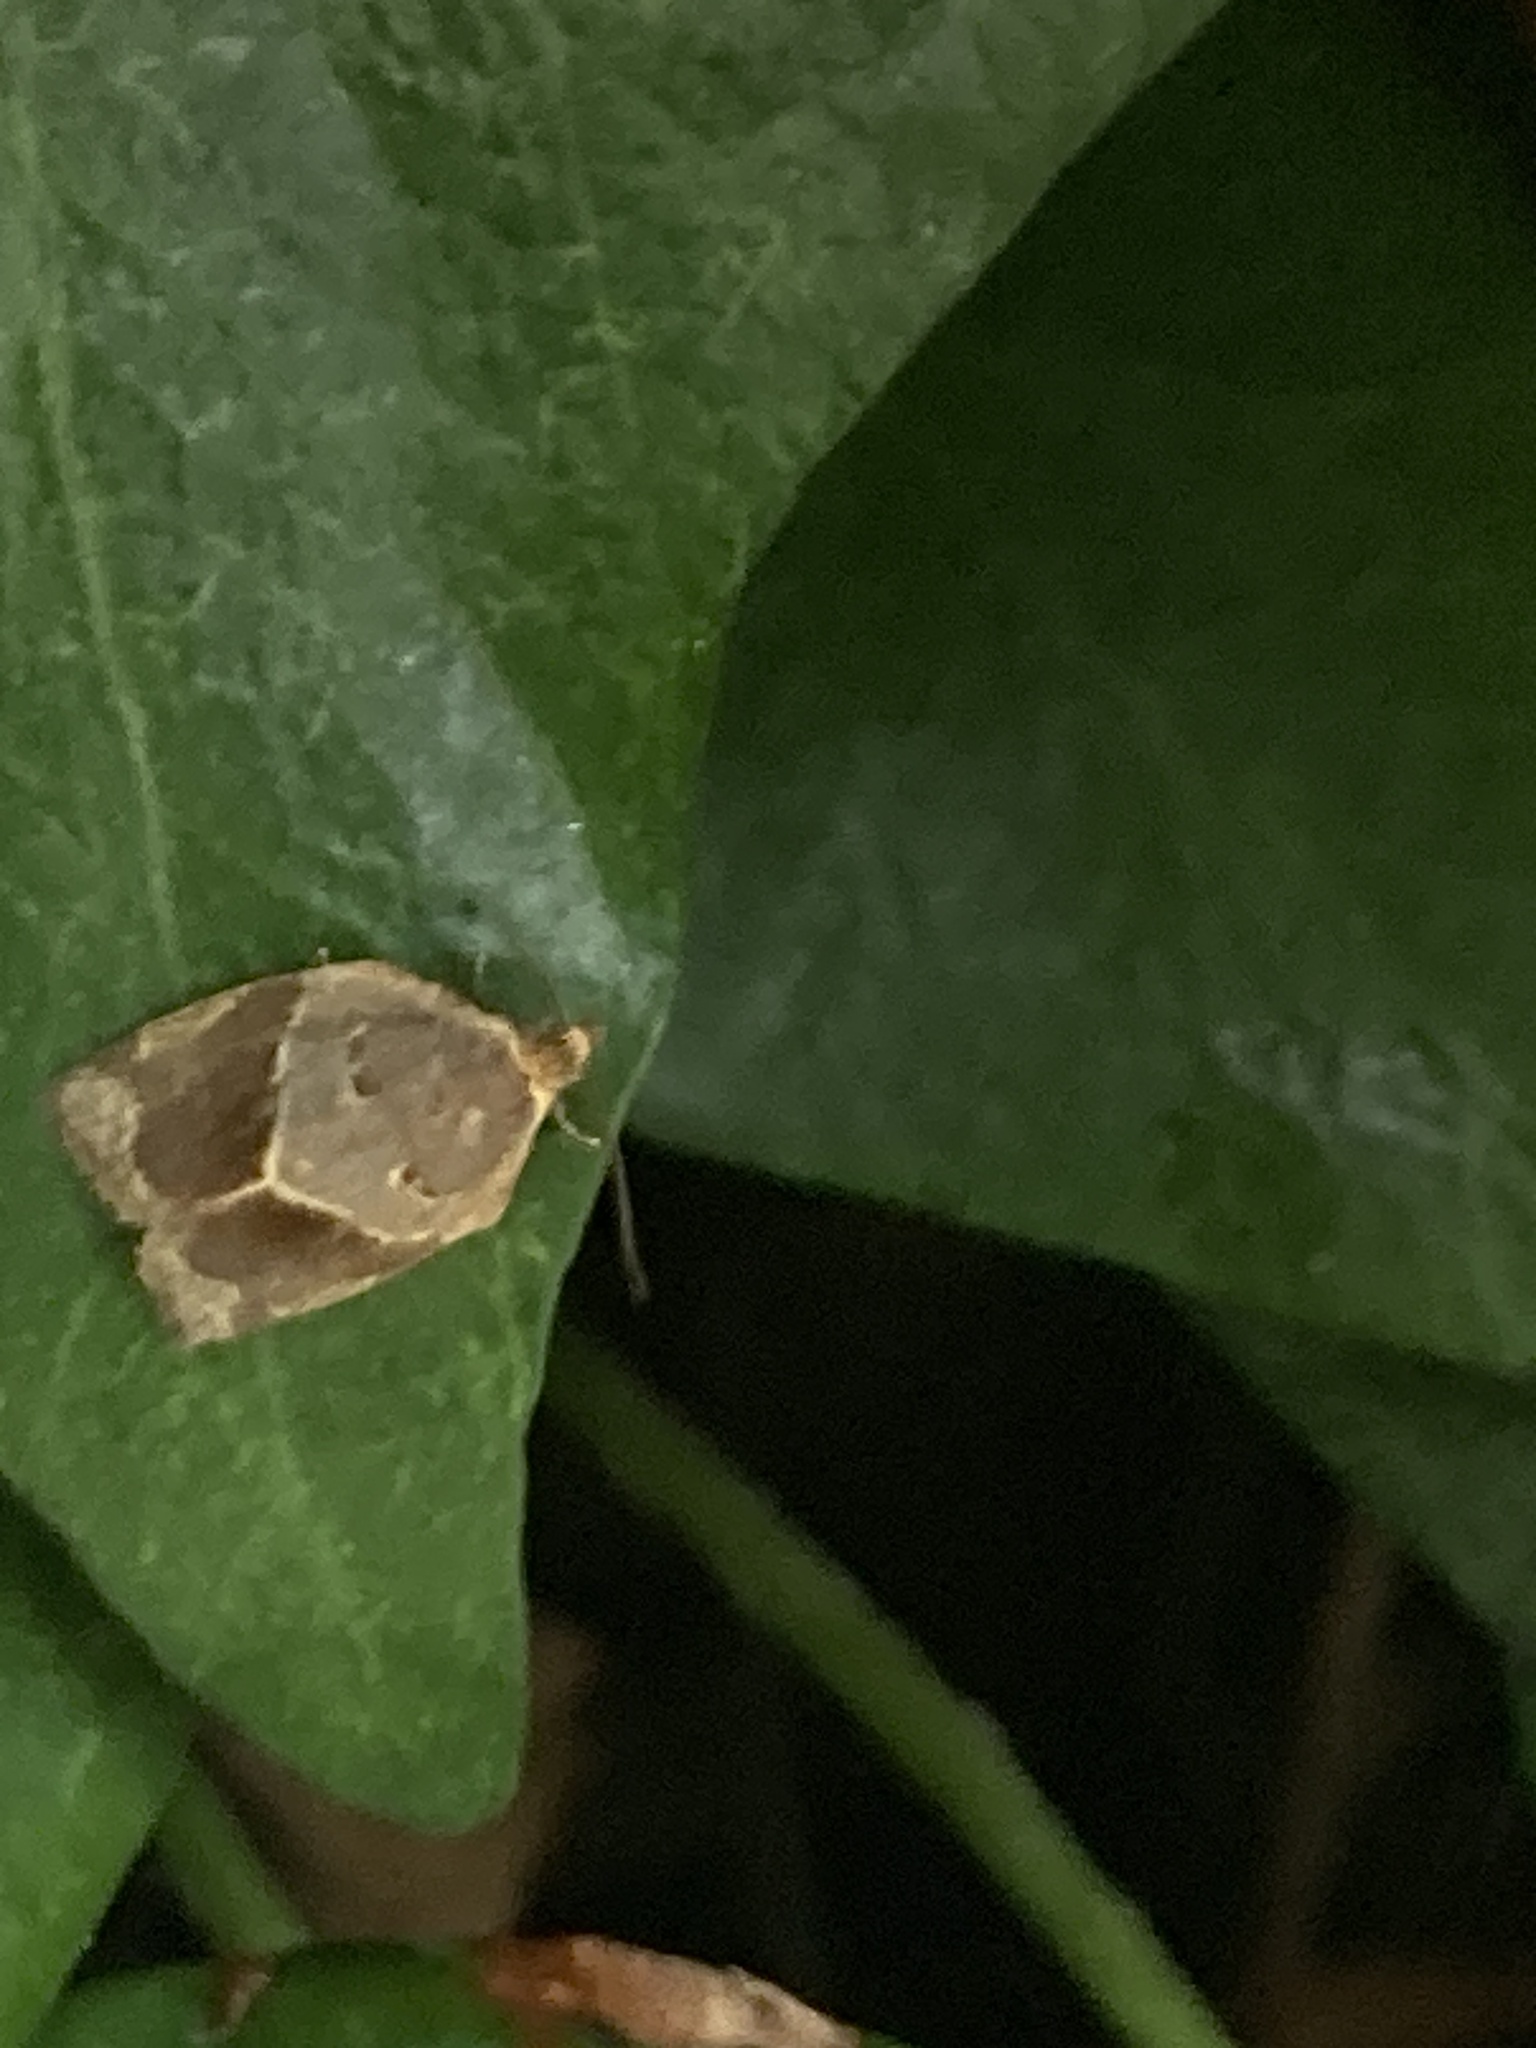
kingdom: Animalia
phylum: Arthropoda
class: Insecta
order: Lepidoptera
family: Tortricidae
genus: Clepsis
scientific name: Clepsis dumicolana
